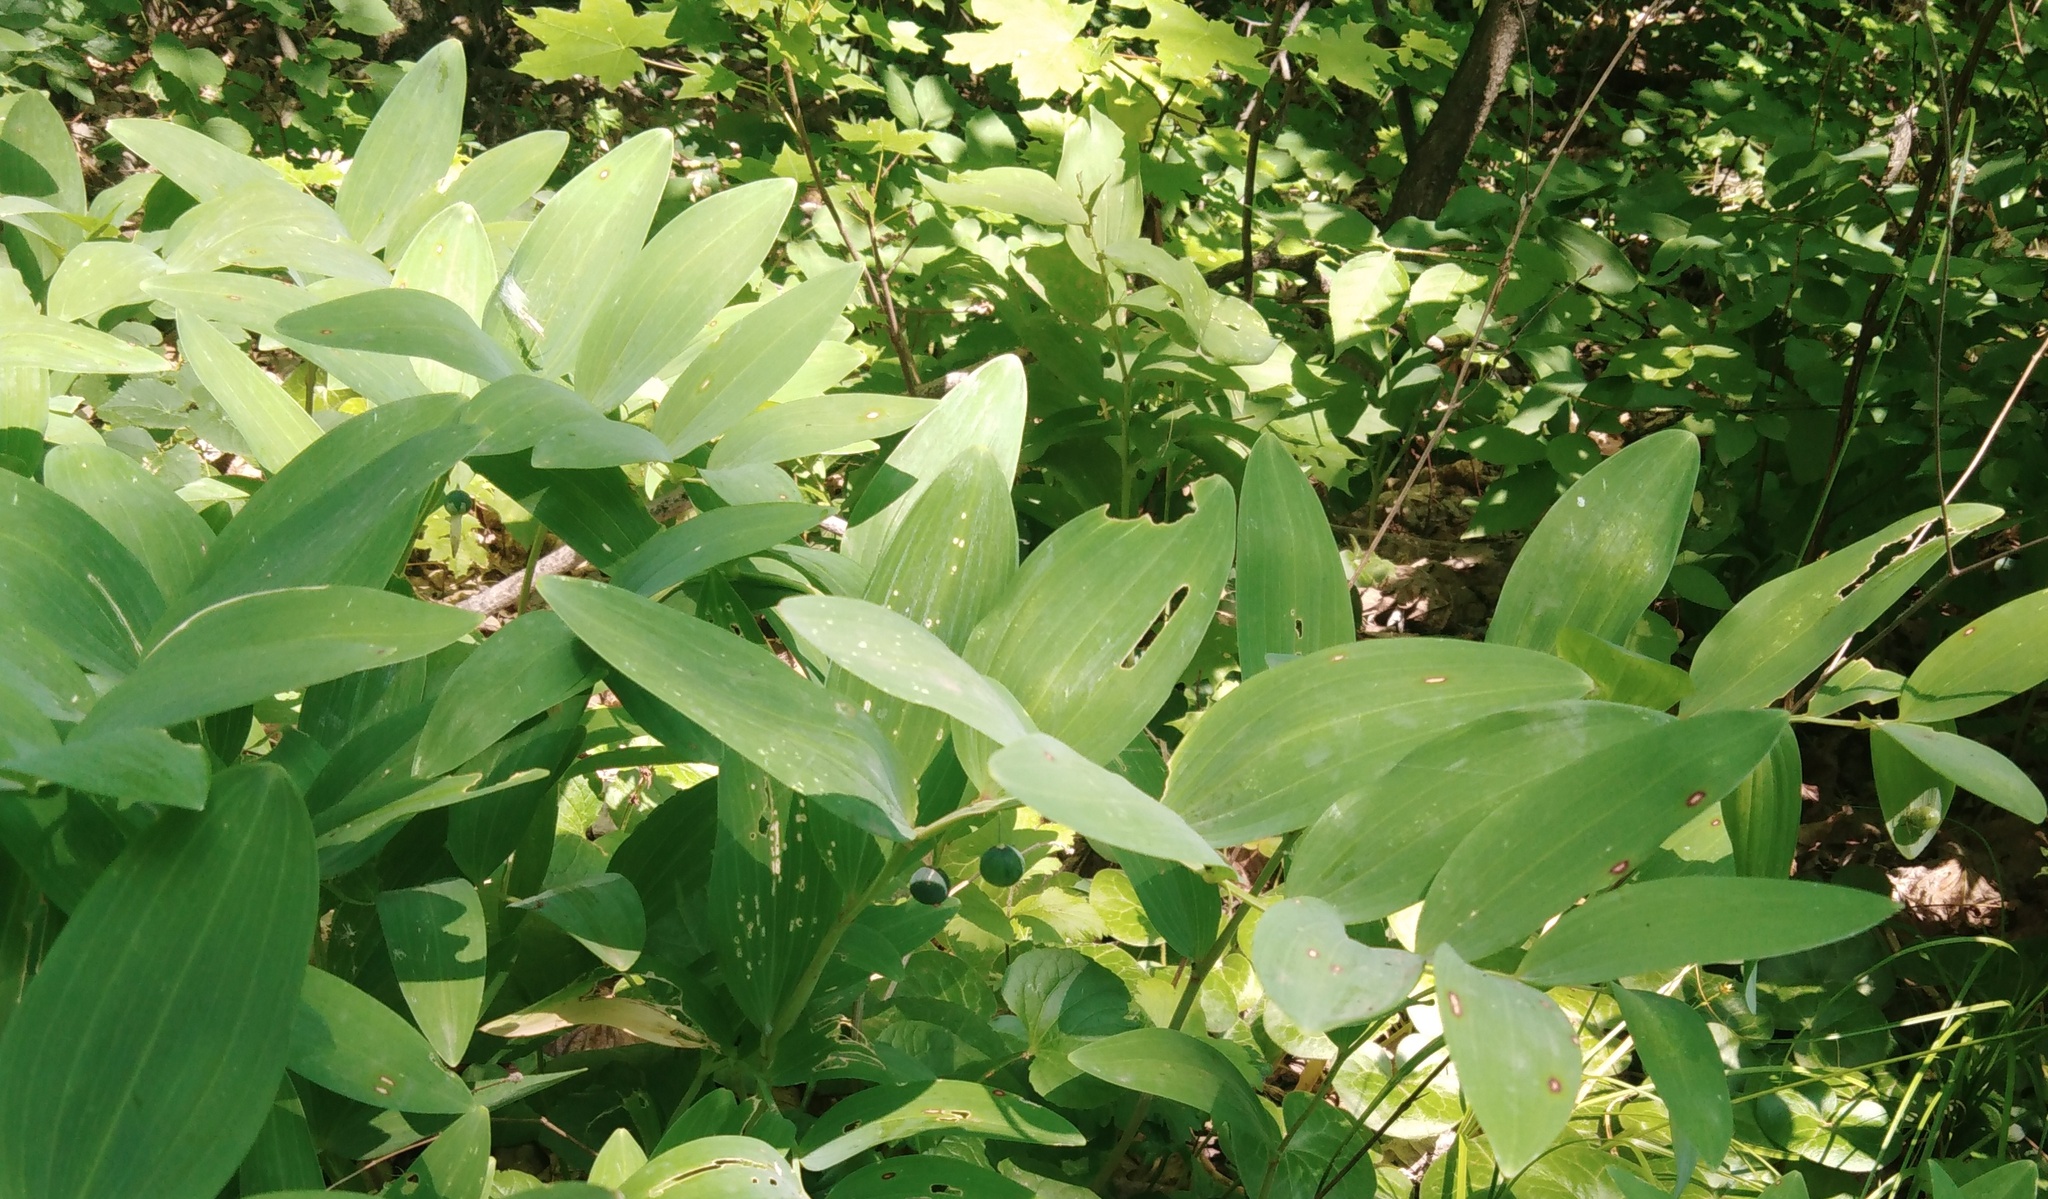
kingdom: Plantae
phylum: Tracheophyta
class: Liliopsida
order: Asparagales
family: Asparagaceae
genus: Polygonatum
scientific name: Polygonatum odoratum
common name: Angular solomon's-seal
